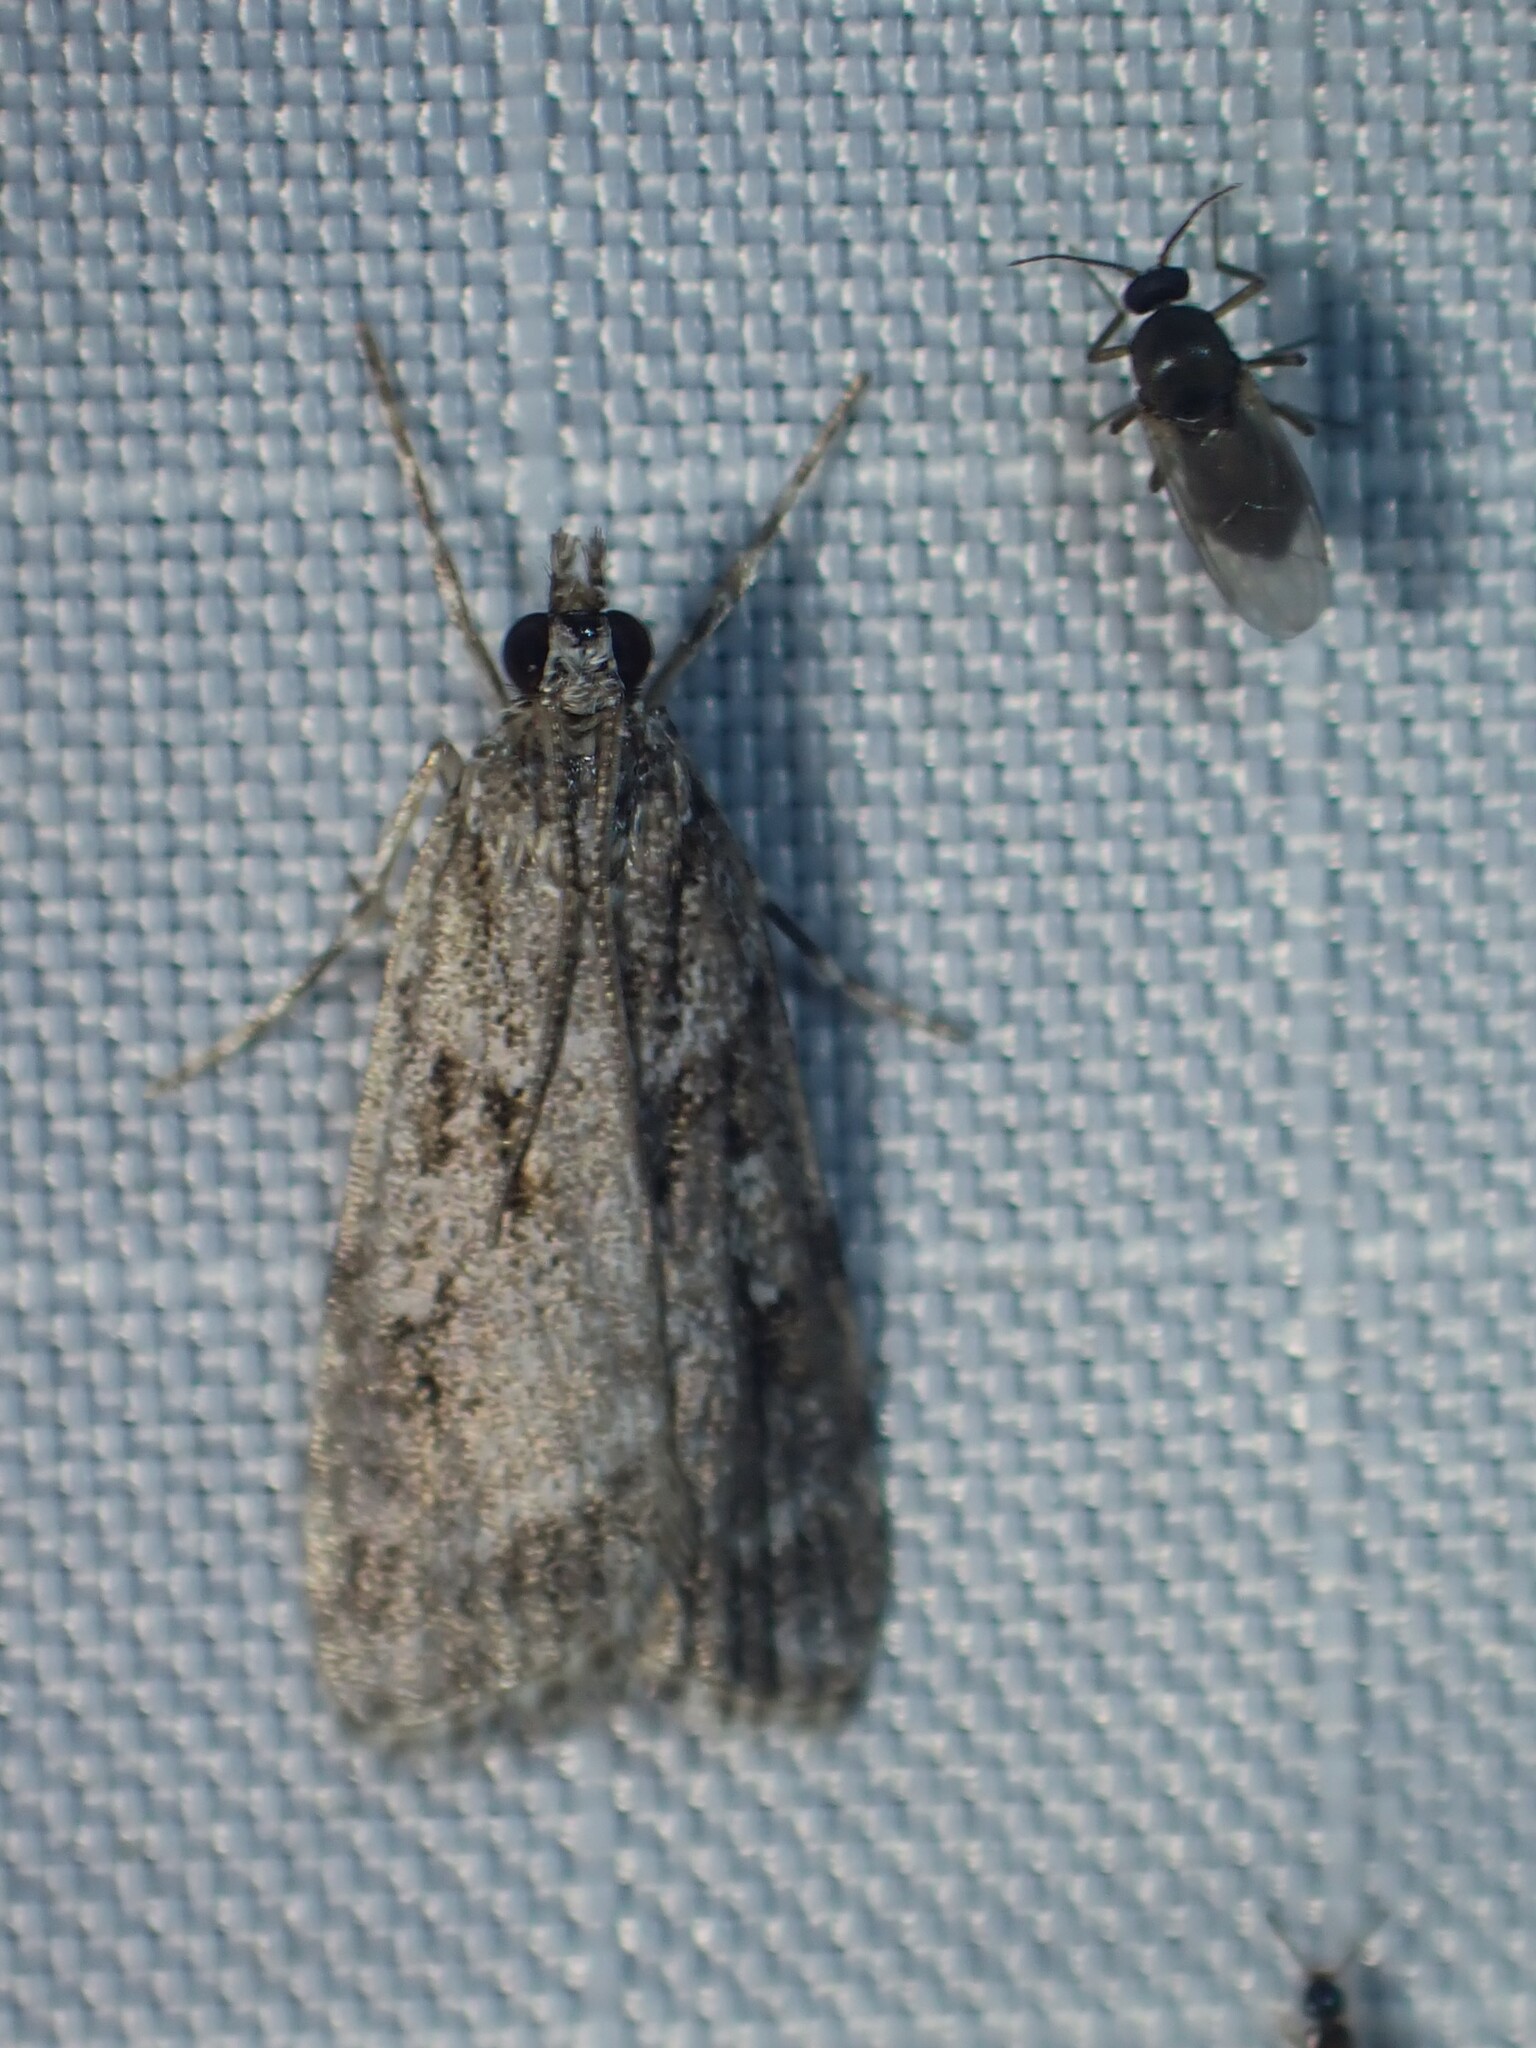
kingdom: Animalia
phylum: Arthropoda
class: Insecta
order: Lepidoptera
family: Crambidae
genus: Scoparia
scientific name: Scoparia biplagialis
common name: Double-striped scoparia moth
